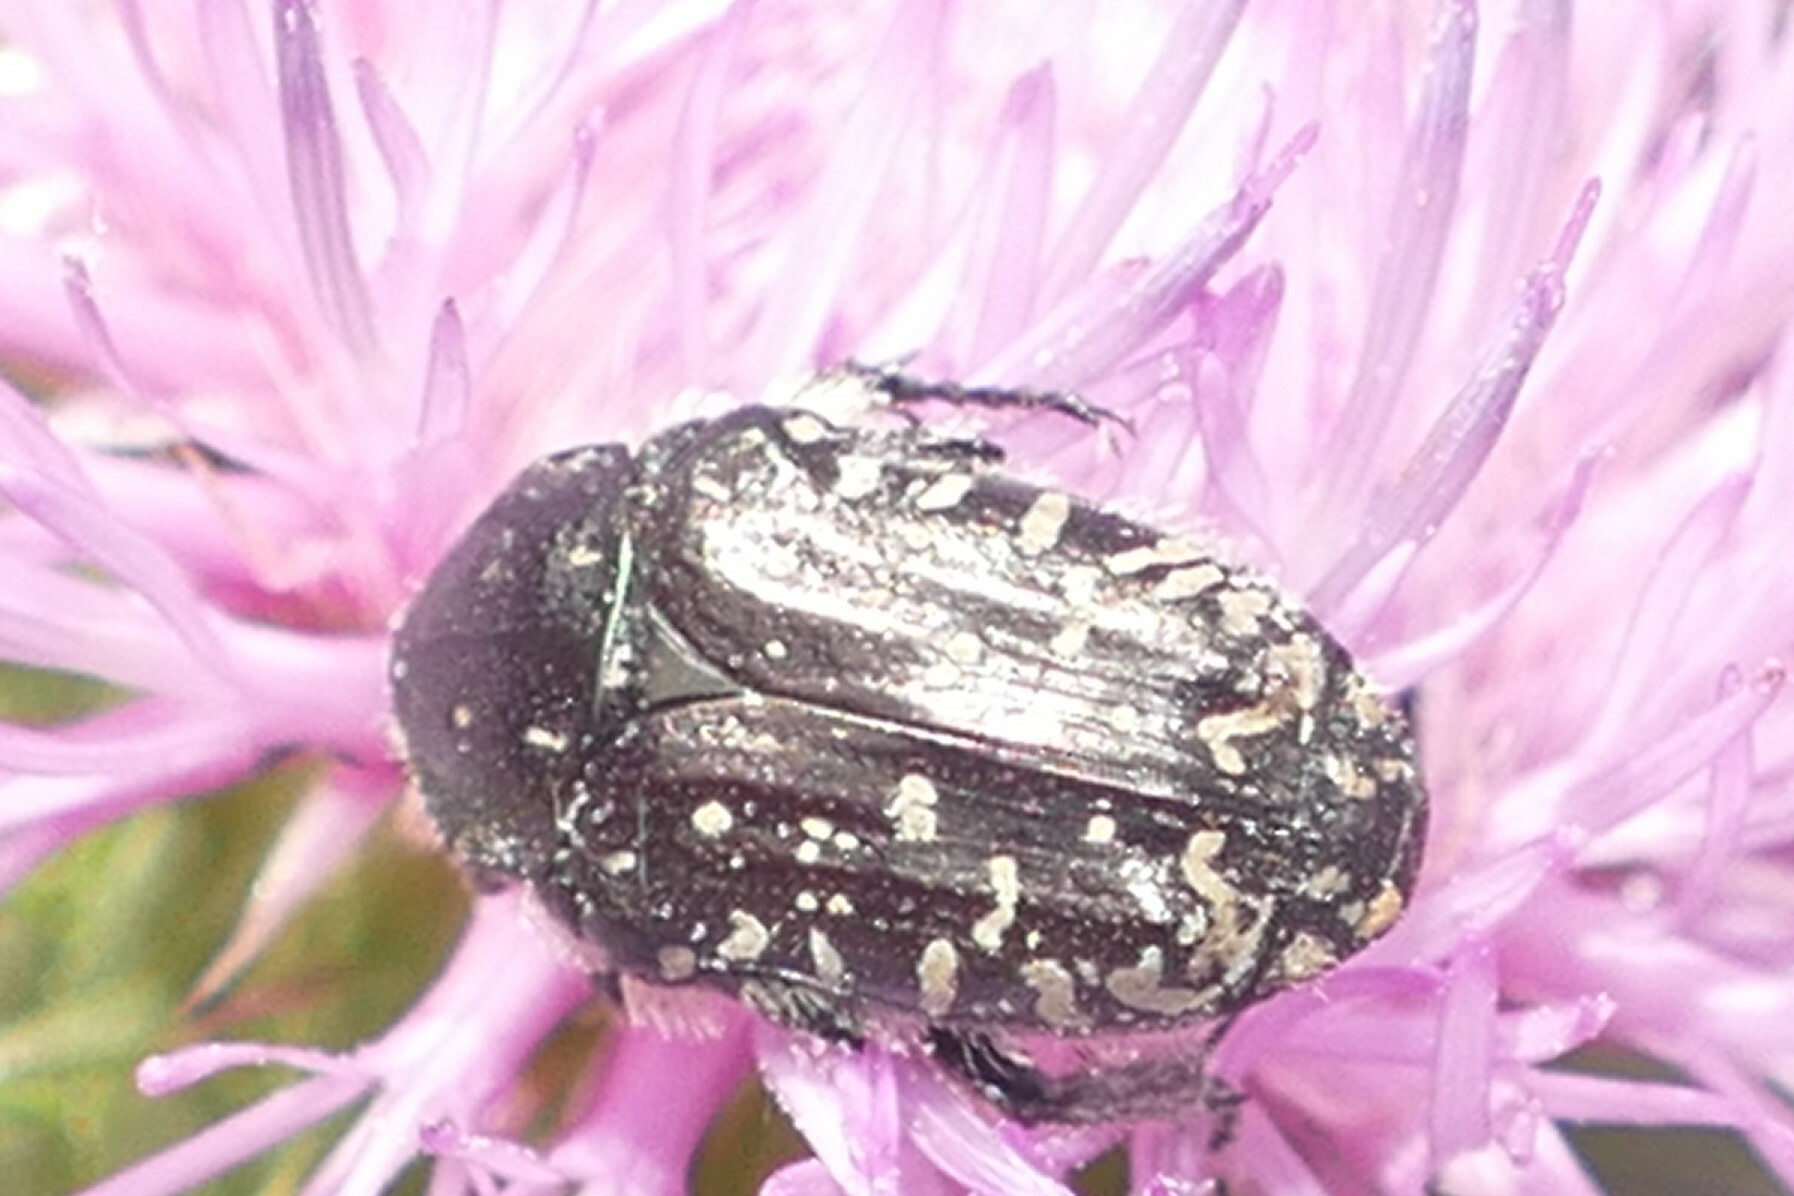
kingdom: Animalia
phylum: Arthropoda
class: Insecta
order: Coleoptera
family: Scarabaeidae
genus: Oxythyrea
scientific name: Oxythyrea funesta
